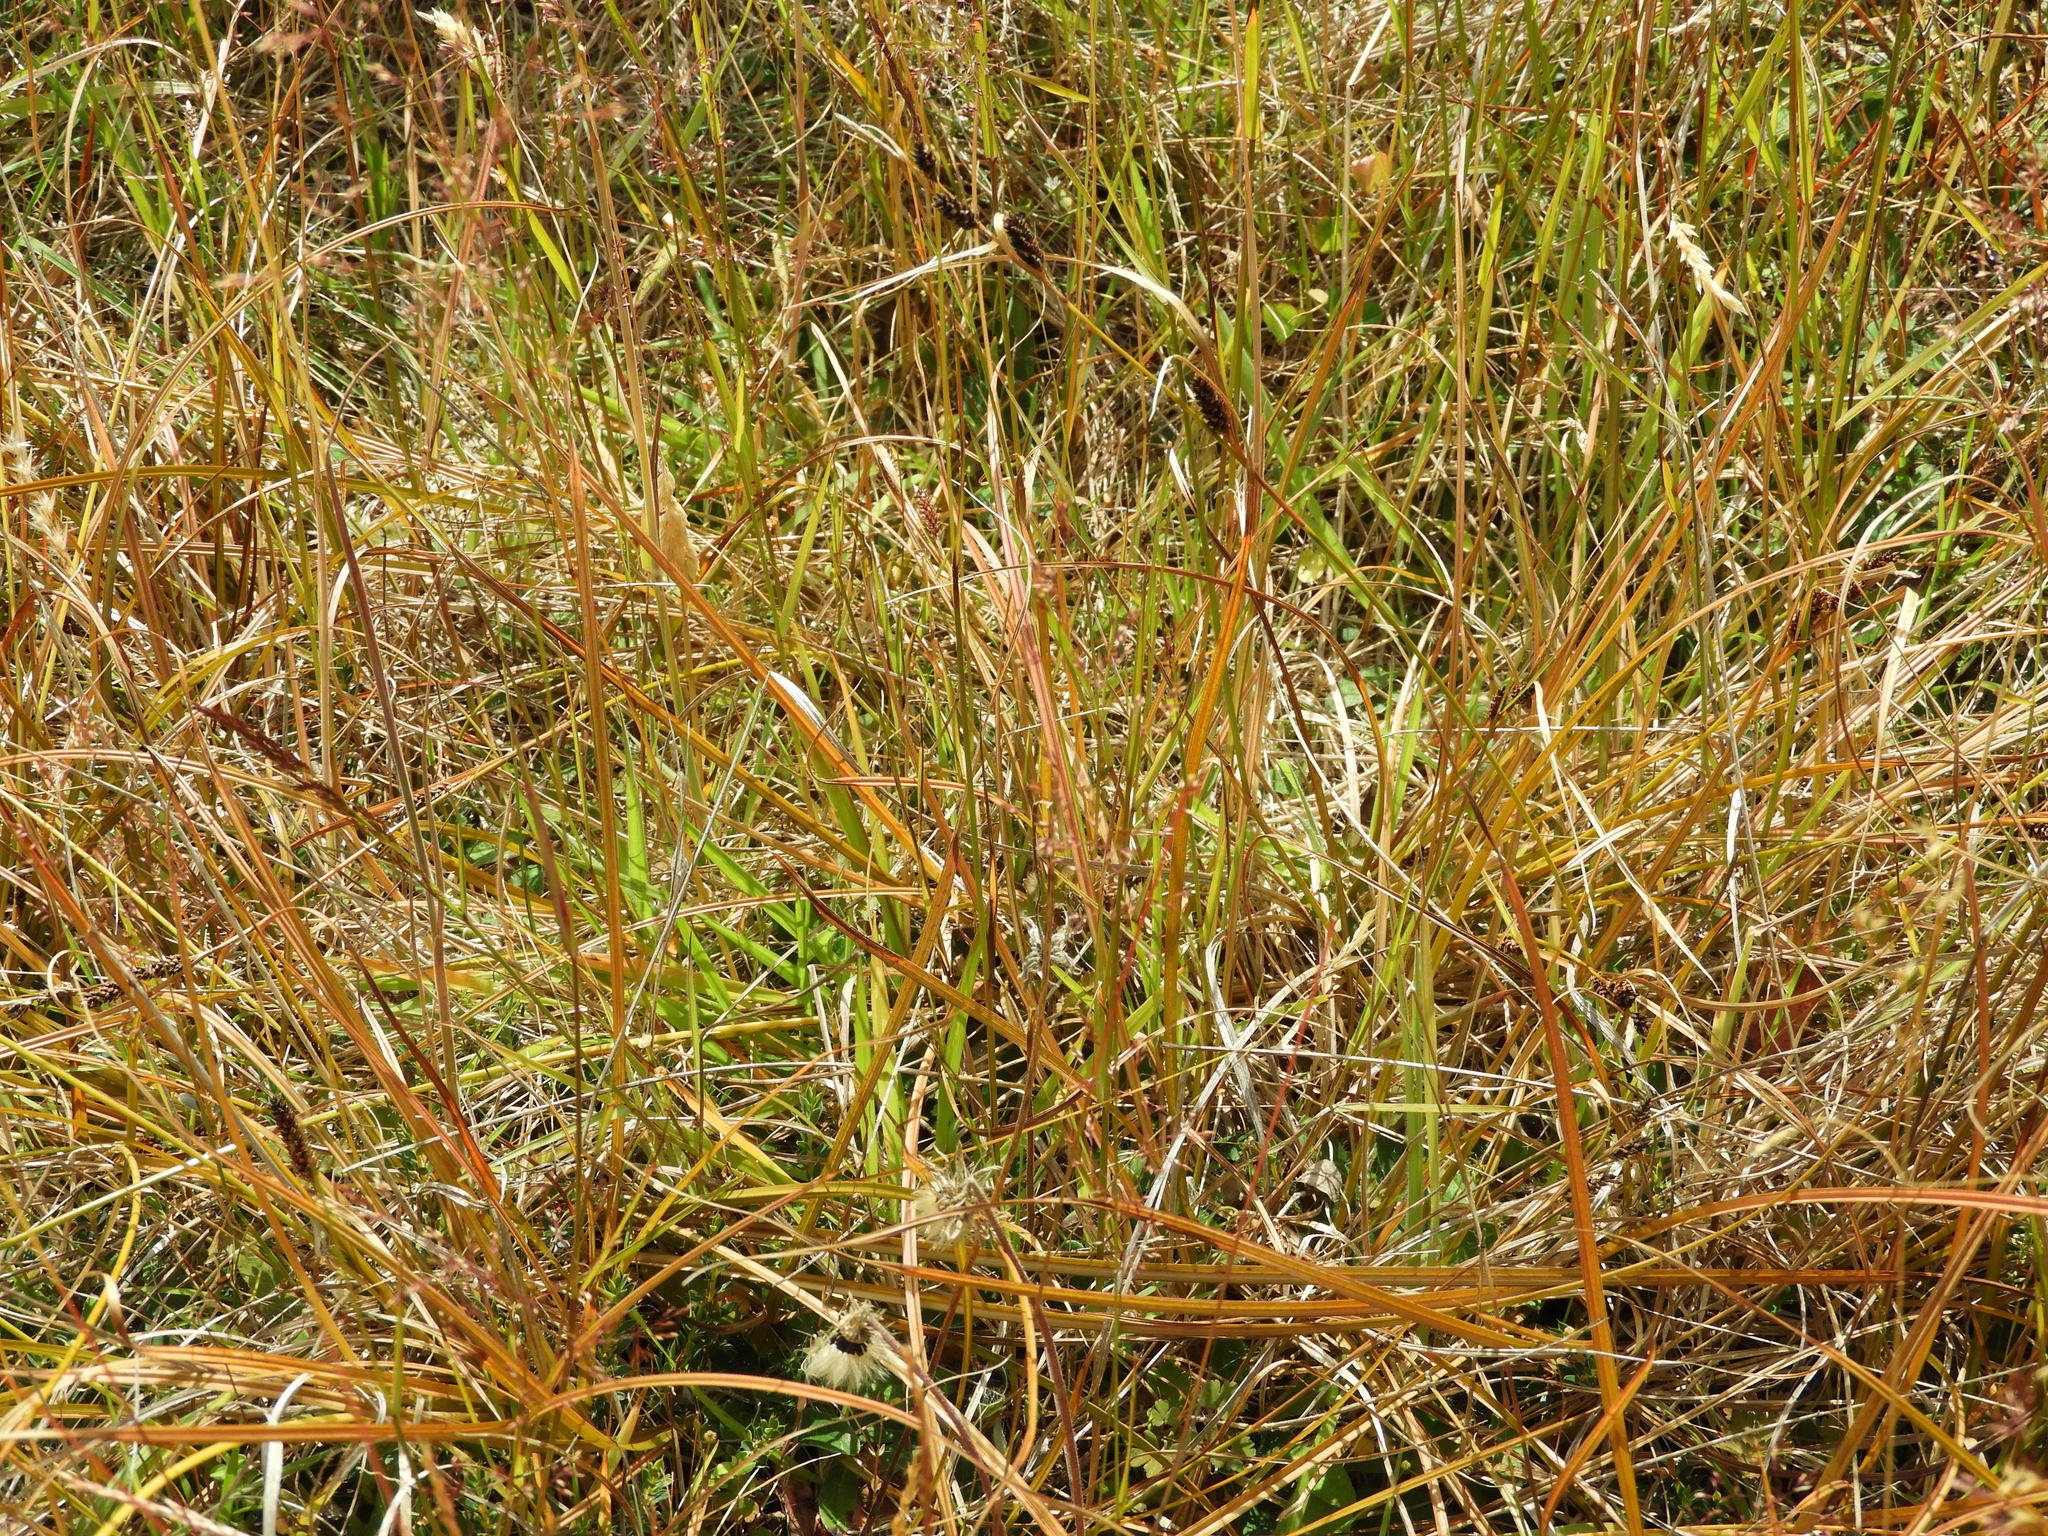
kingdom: Plantae
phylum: Tracheophyta
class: Liliopsida
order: Poales
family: Cyperaceae
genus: Carex
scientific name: Carex dallii
